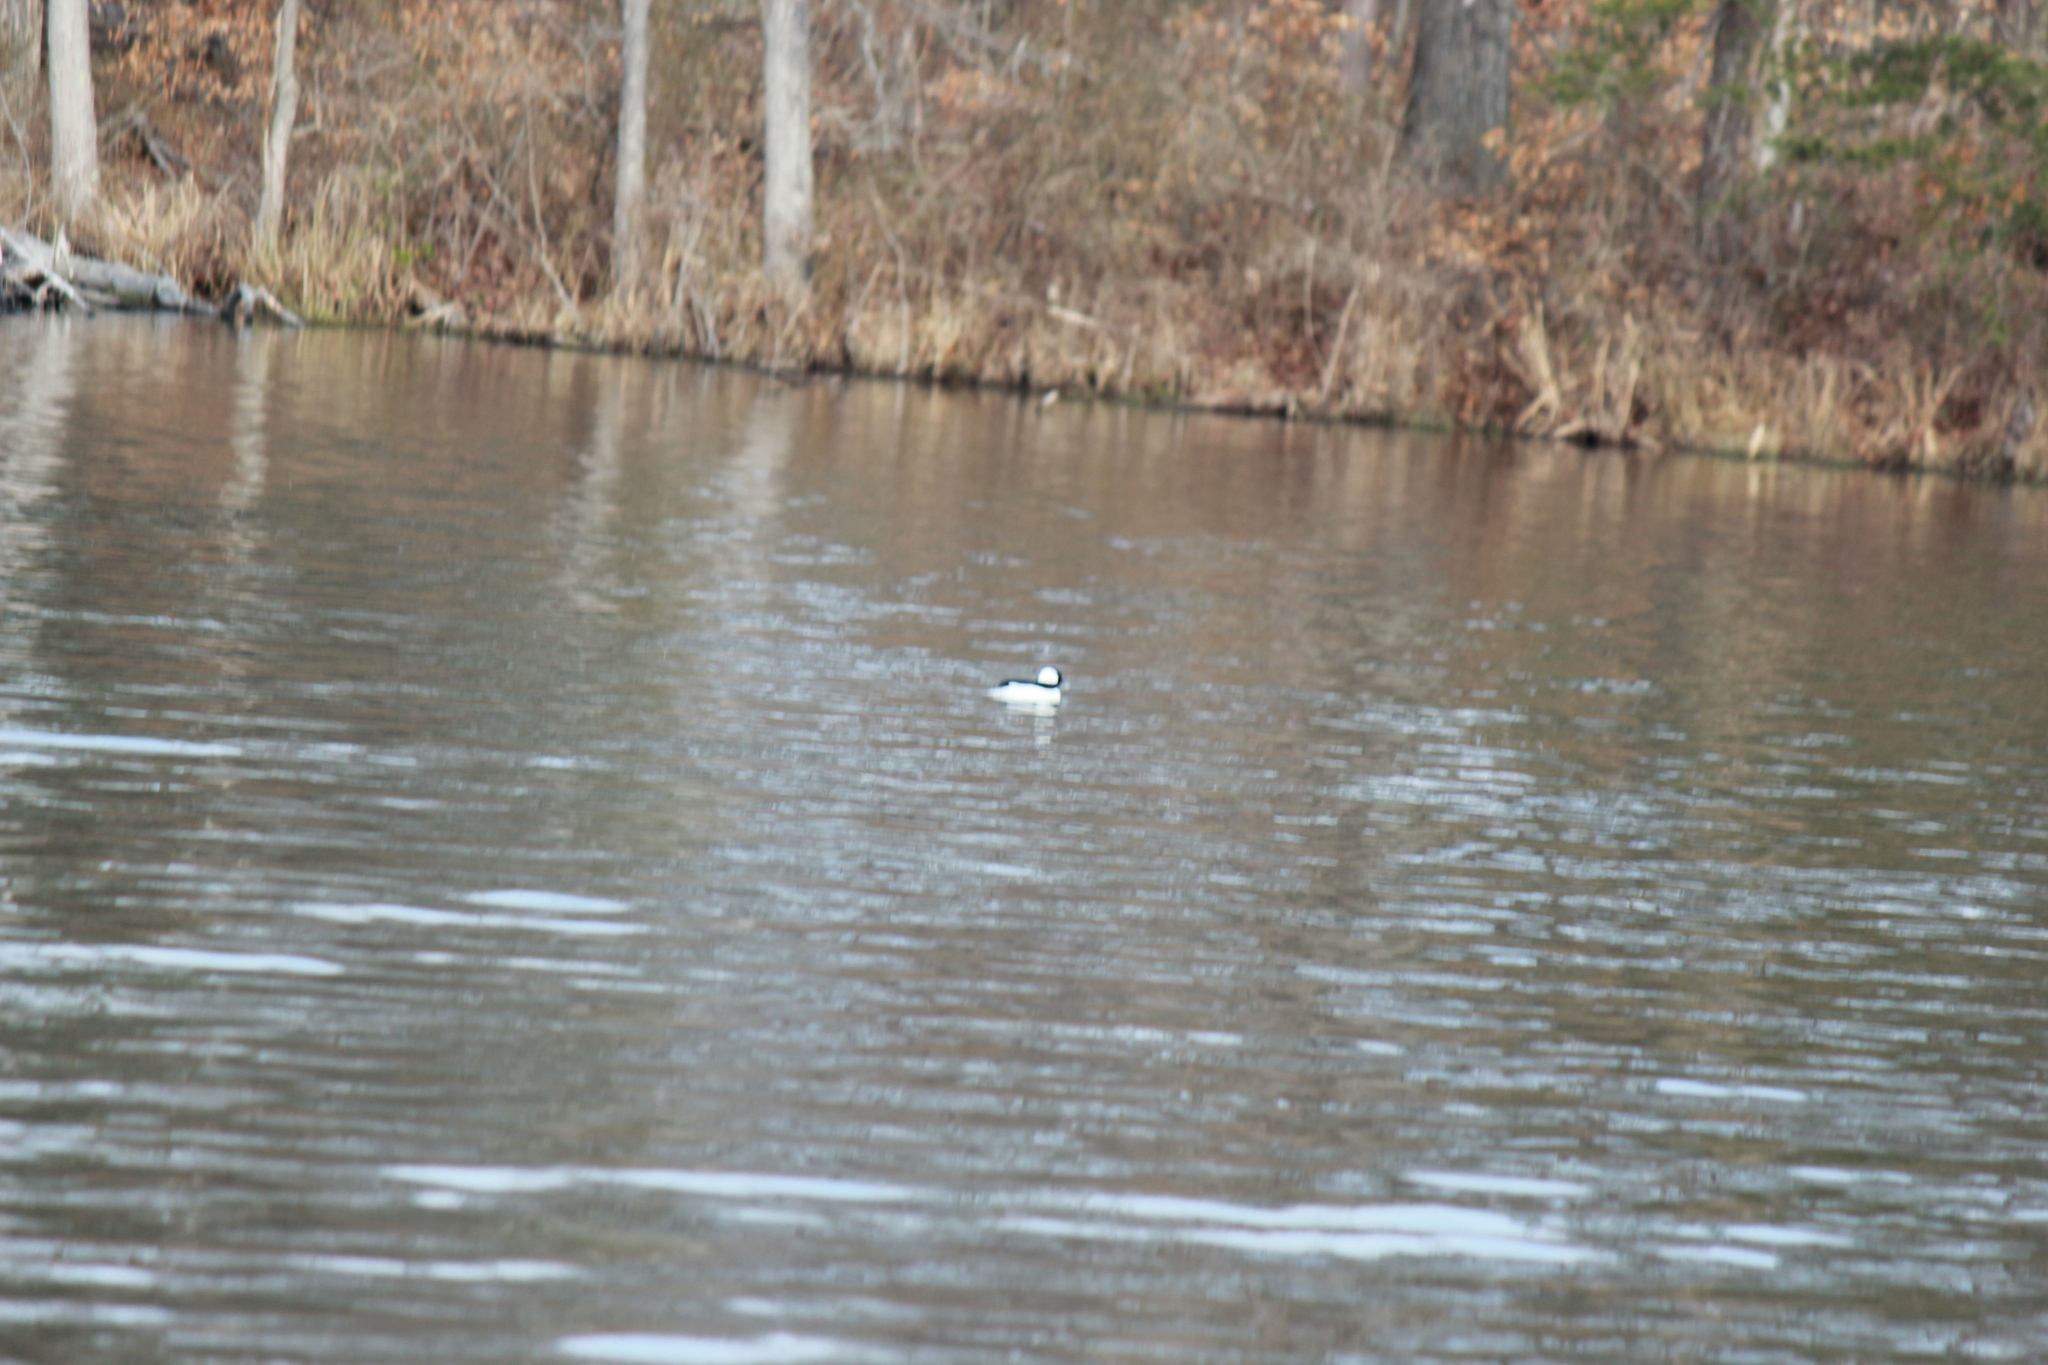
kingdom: Animalia
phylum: Chordata
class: Aves
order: Anseriformes
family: Anatidae
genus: Bucephala
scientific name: Bucephala albeola
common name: Bufflehead
